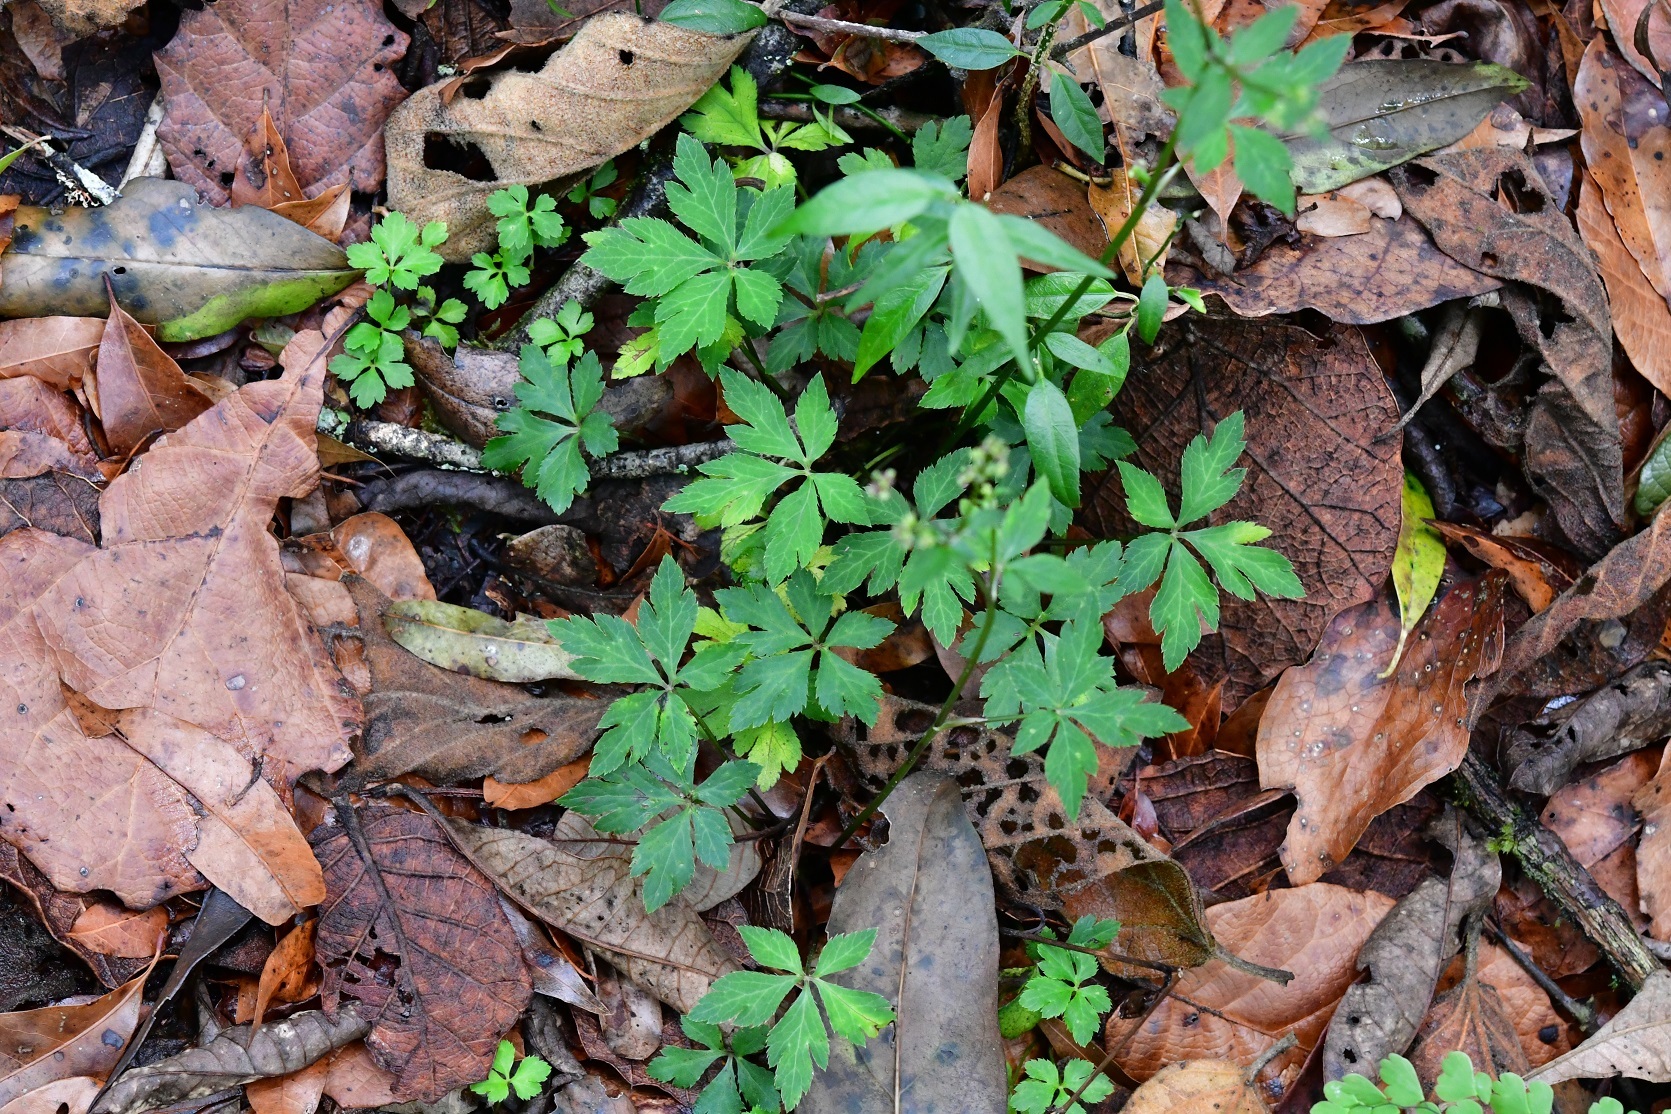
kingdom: Plantae
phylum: Tracheophyta
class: Magnoliopsida
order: Apiales
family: Apiaceae
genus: Sanicula
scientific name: Sanicula liberta
